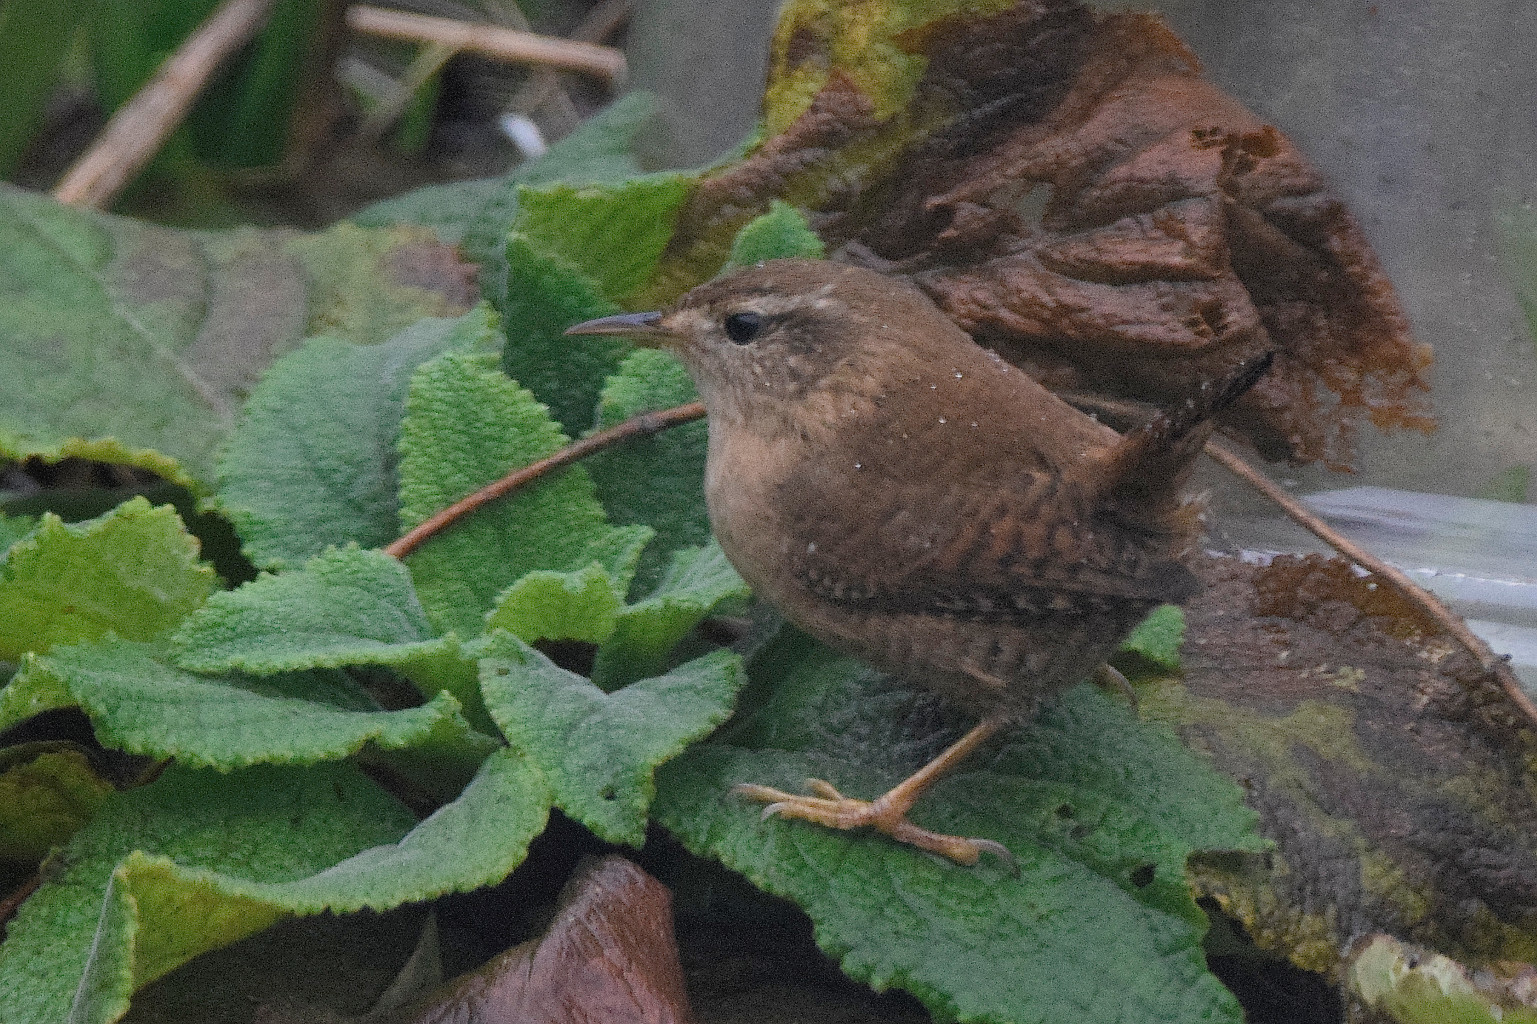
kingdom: Animalia
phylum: Chordata
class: Aves
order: Passeriformes
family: Troglodytidae
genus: Troglodytes
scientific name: Troglodytes troglodytes
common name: Eurasian wren
